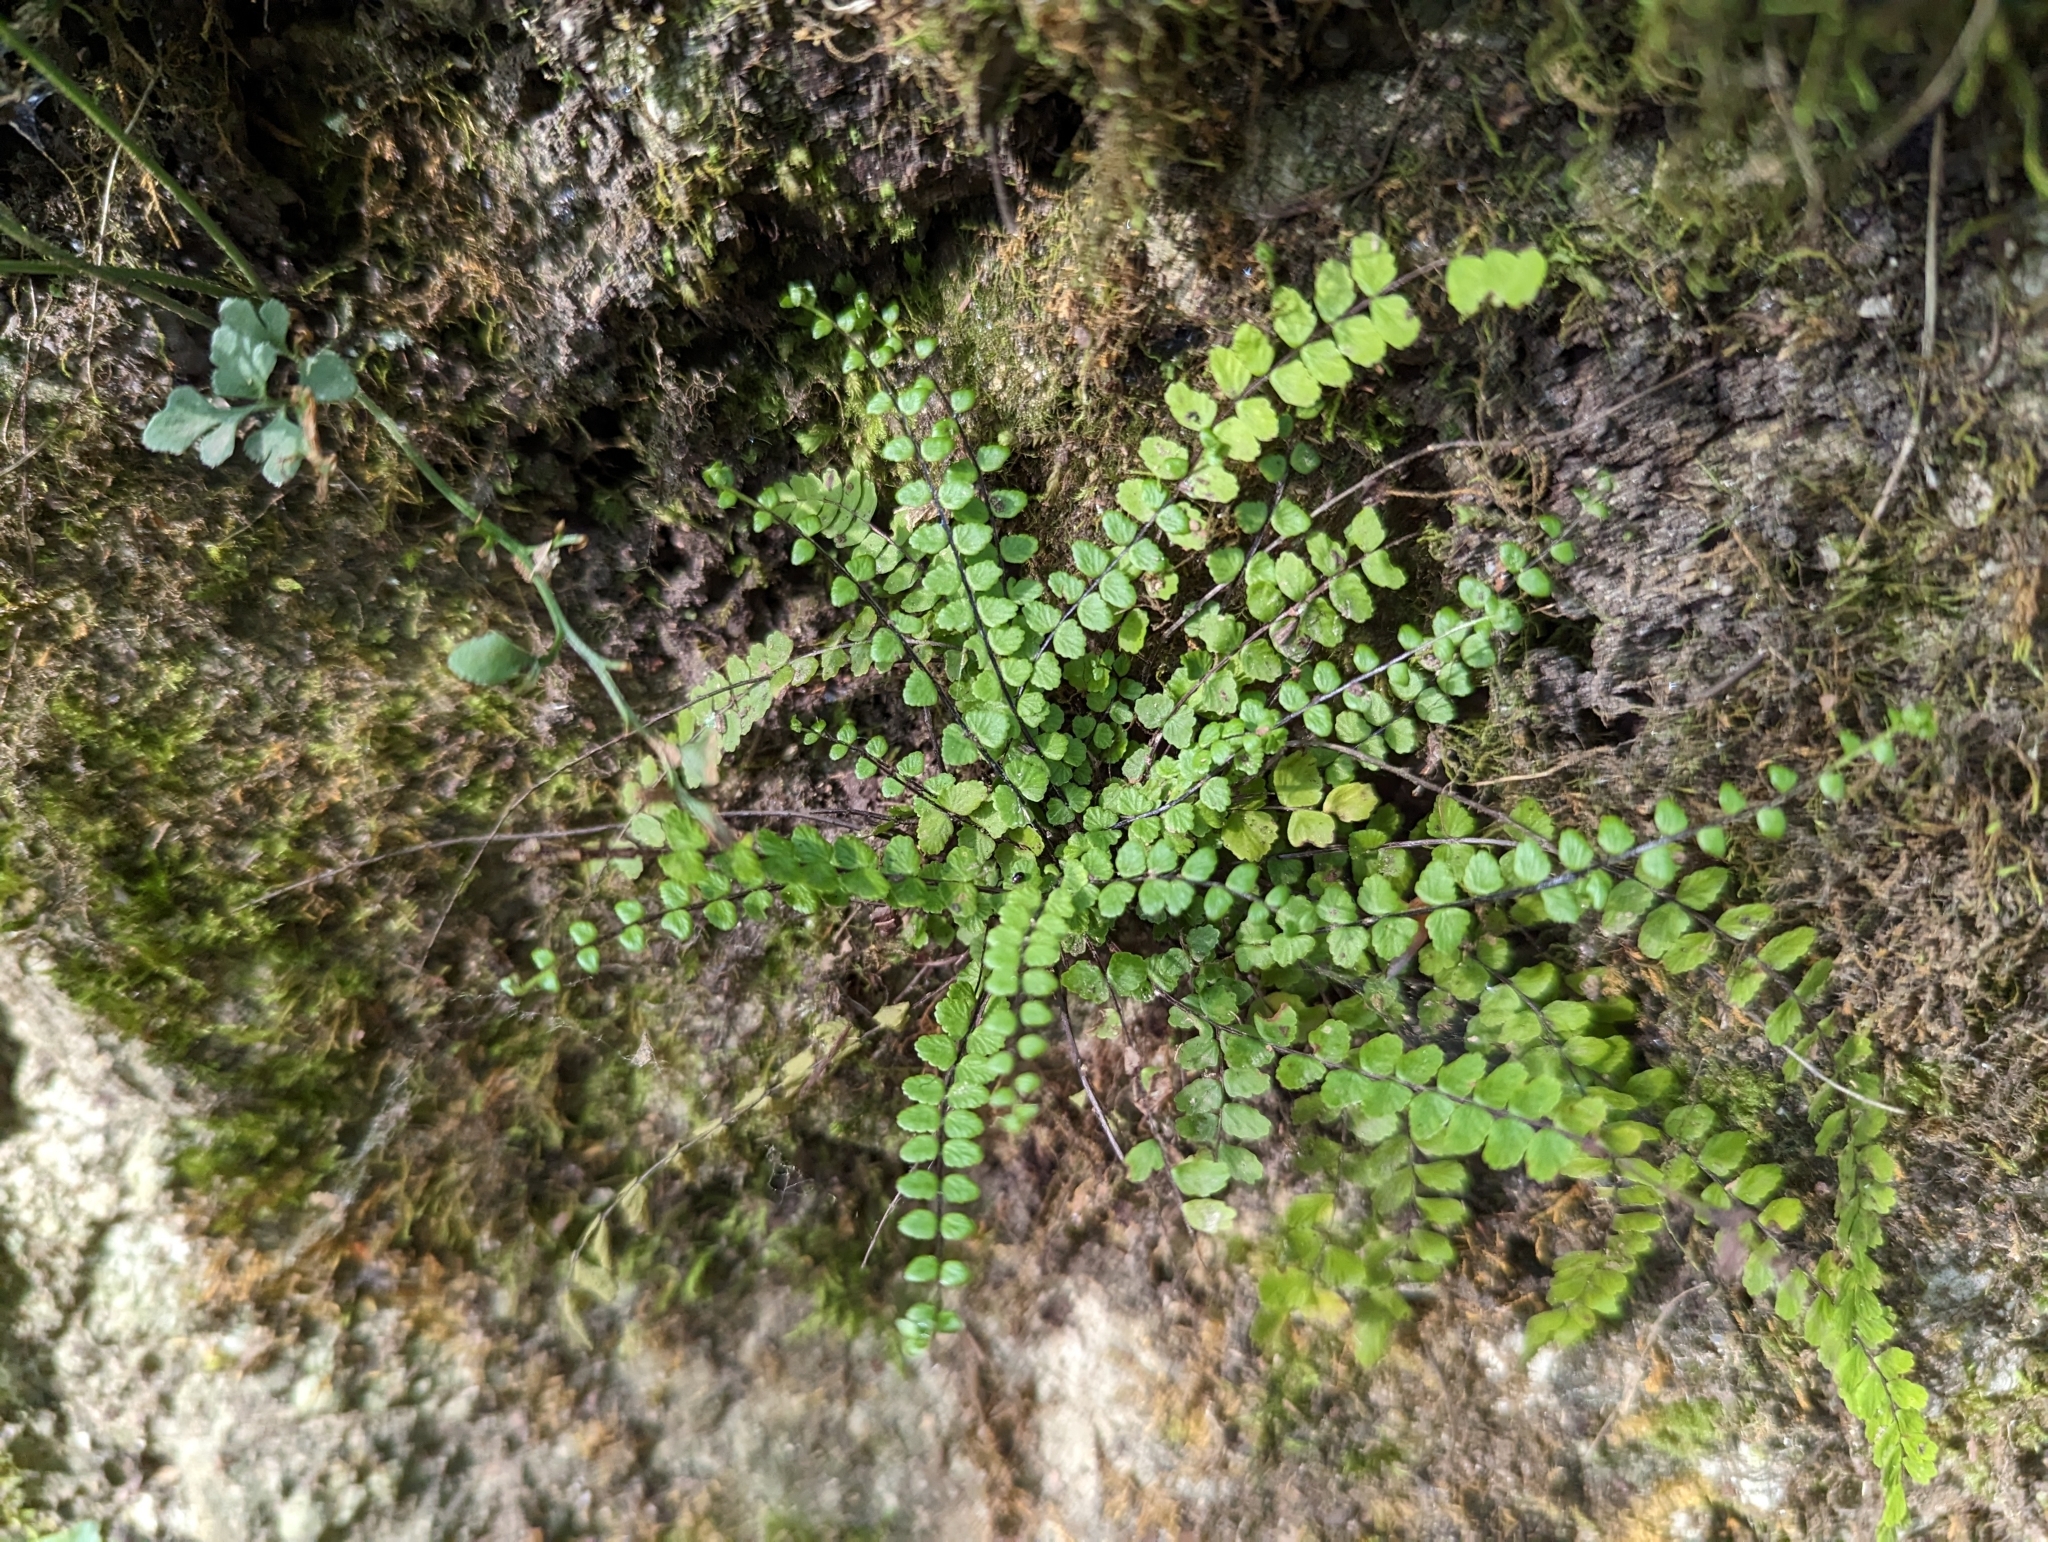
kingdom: Plantae
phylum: Tracheophyta
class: Polypodiopsida
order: Polypodiales
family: Aspleniaceae
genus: Asplenium
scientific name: Asplenium trichomanes
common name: Maidenhair spleenwort
